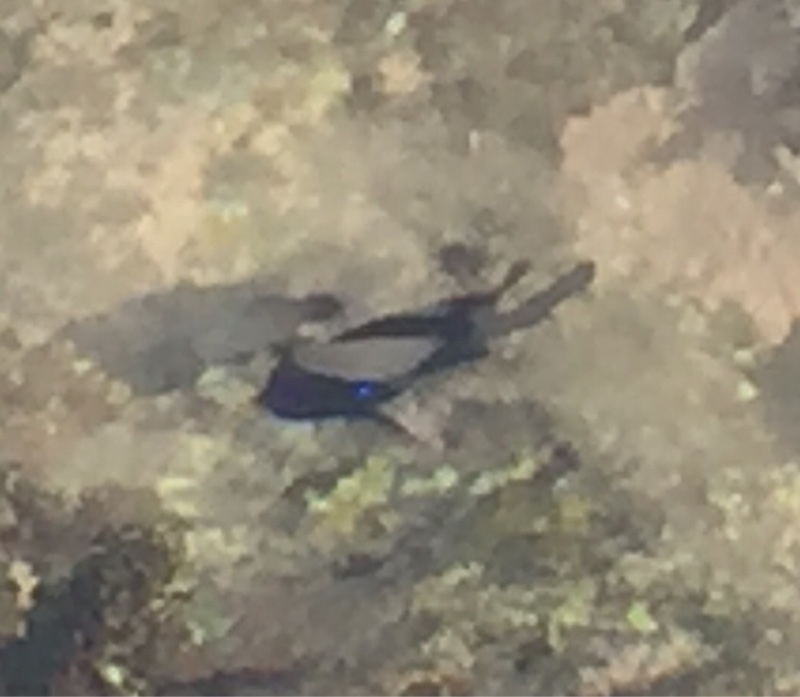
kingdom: Animalia
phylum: Chordata
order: Perciformes
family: Pomacentridae
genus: Similiparma
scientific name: Similiparma lurida
